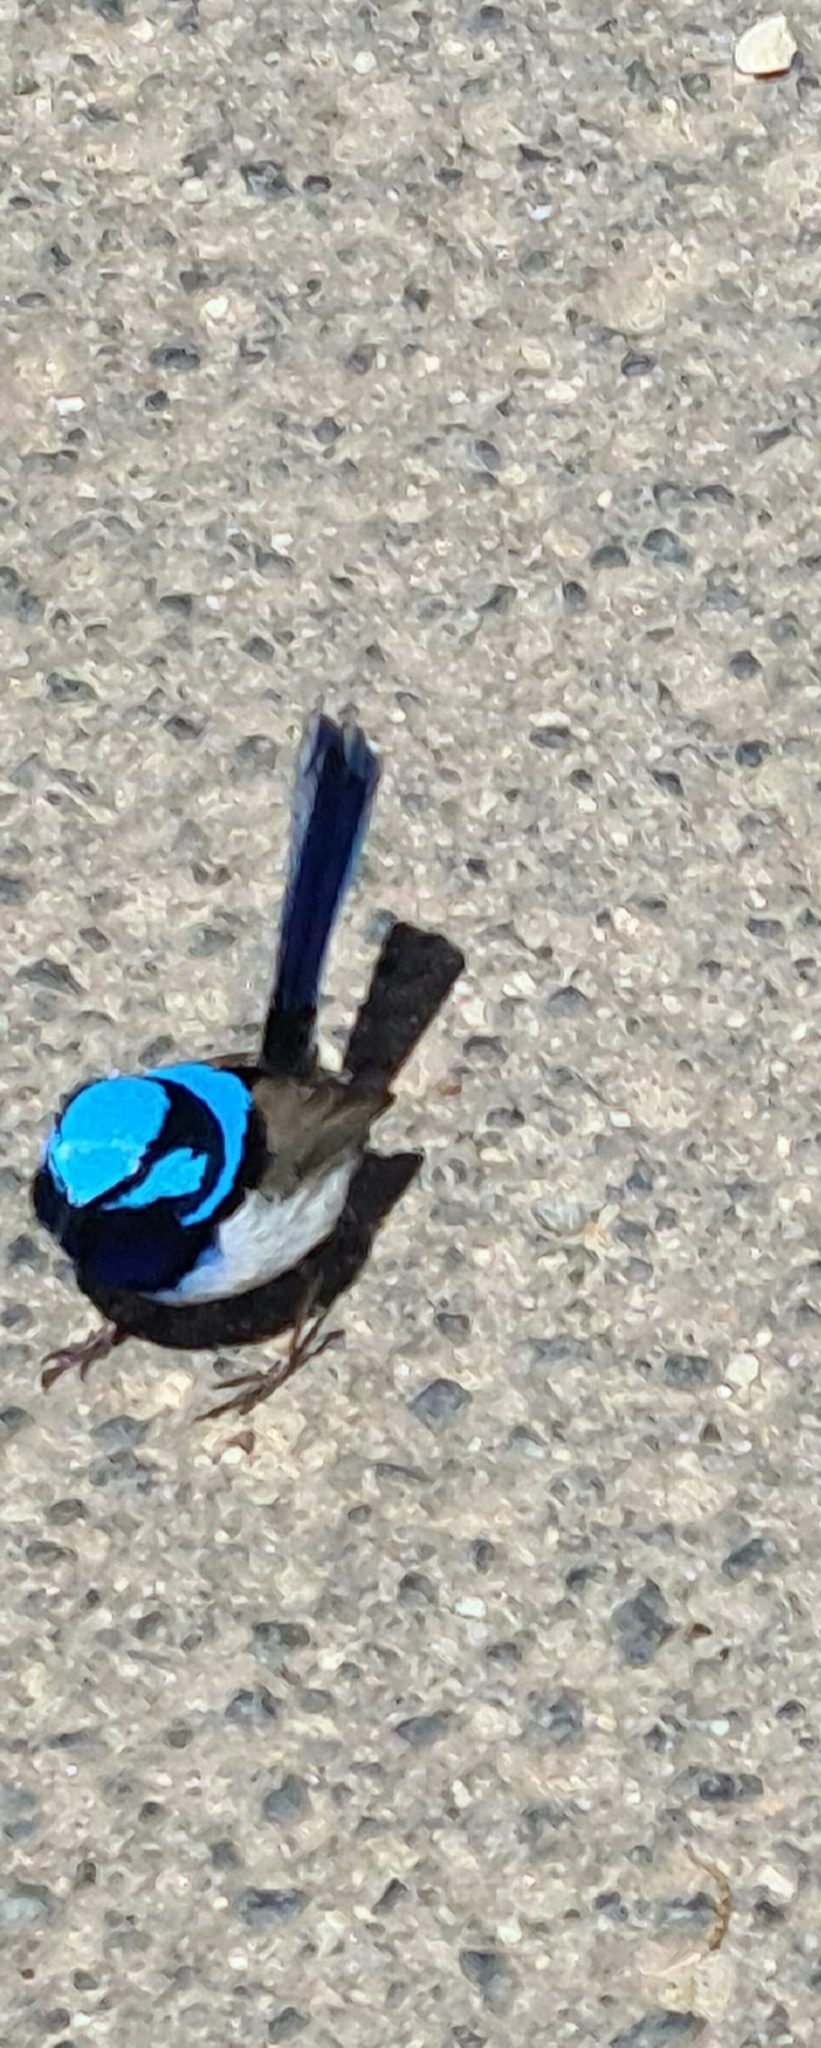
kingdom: Animalia
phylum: Chordata
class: Aves
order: Passeriformes
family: Maluridae
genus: Malurus
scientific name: Malurus cyaneus
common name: Superb fairywren
